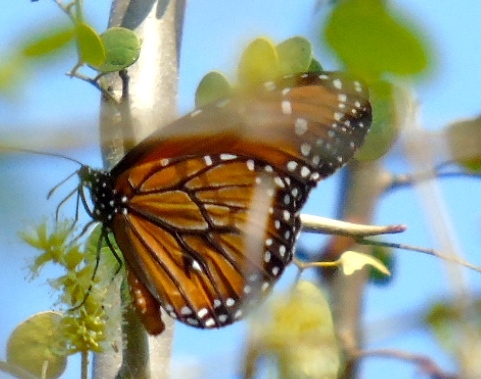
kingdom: Animalia
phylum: Arthropoda
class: Insecta
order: Lepidoptera
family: Nymphalidae
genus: Danaus
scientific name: Danaus eresimus
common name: Soldier
